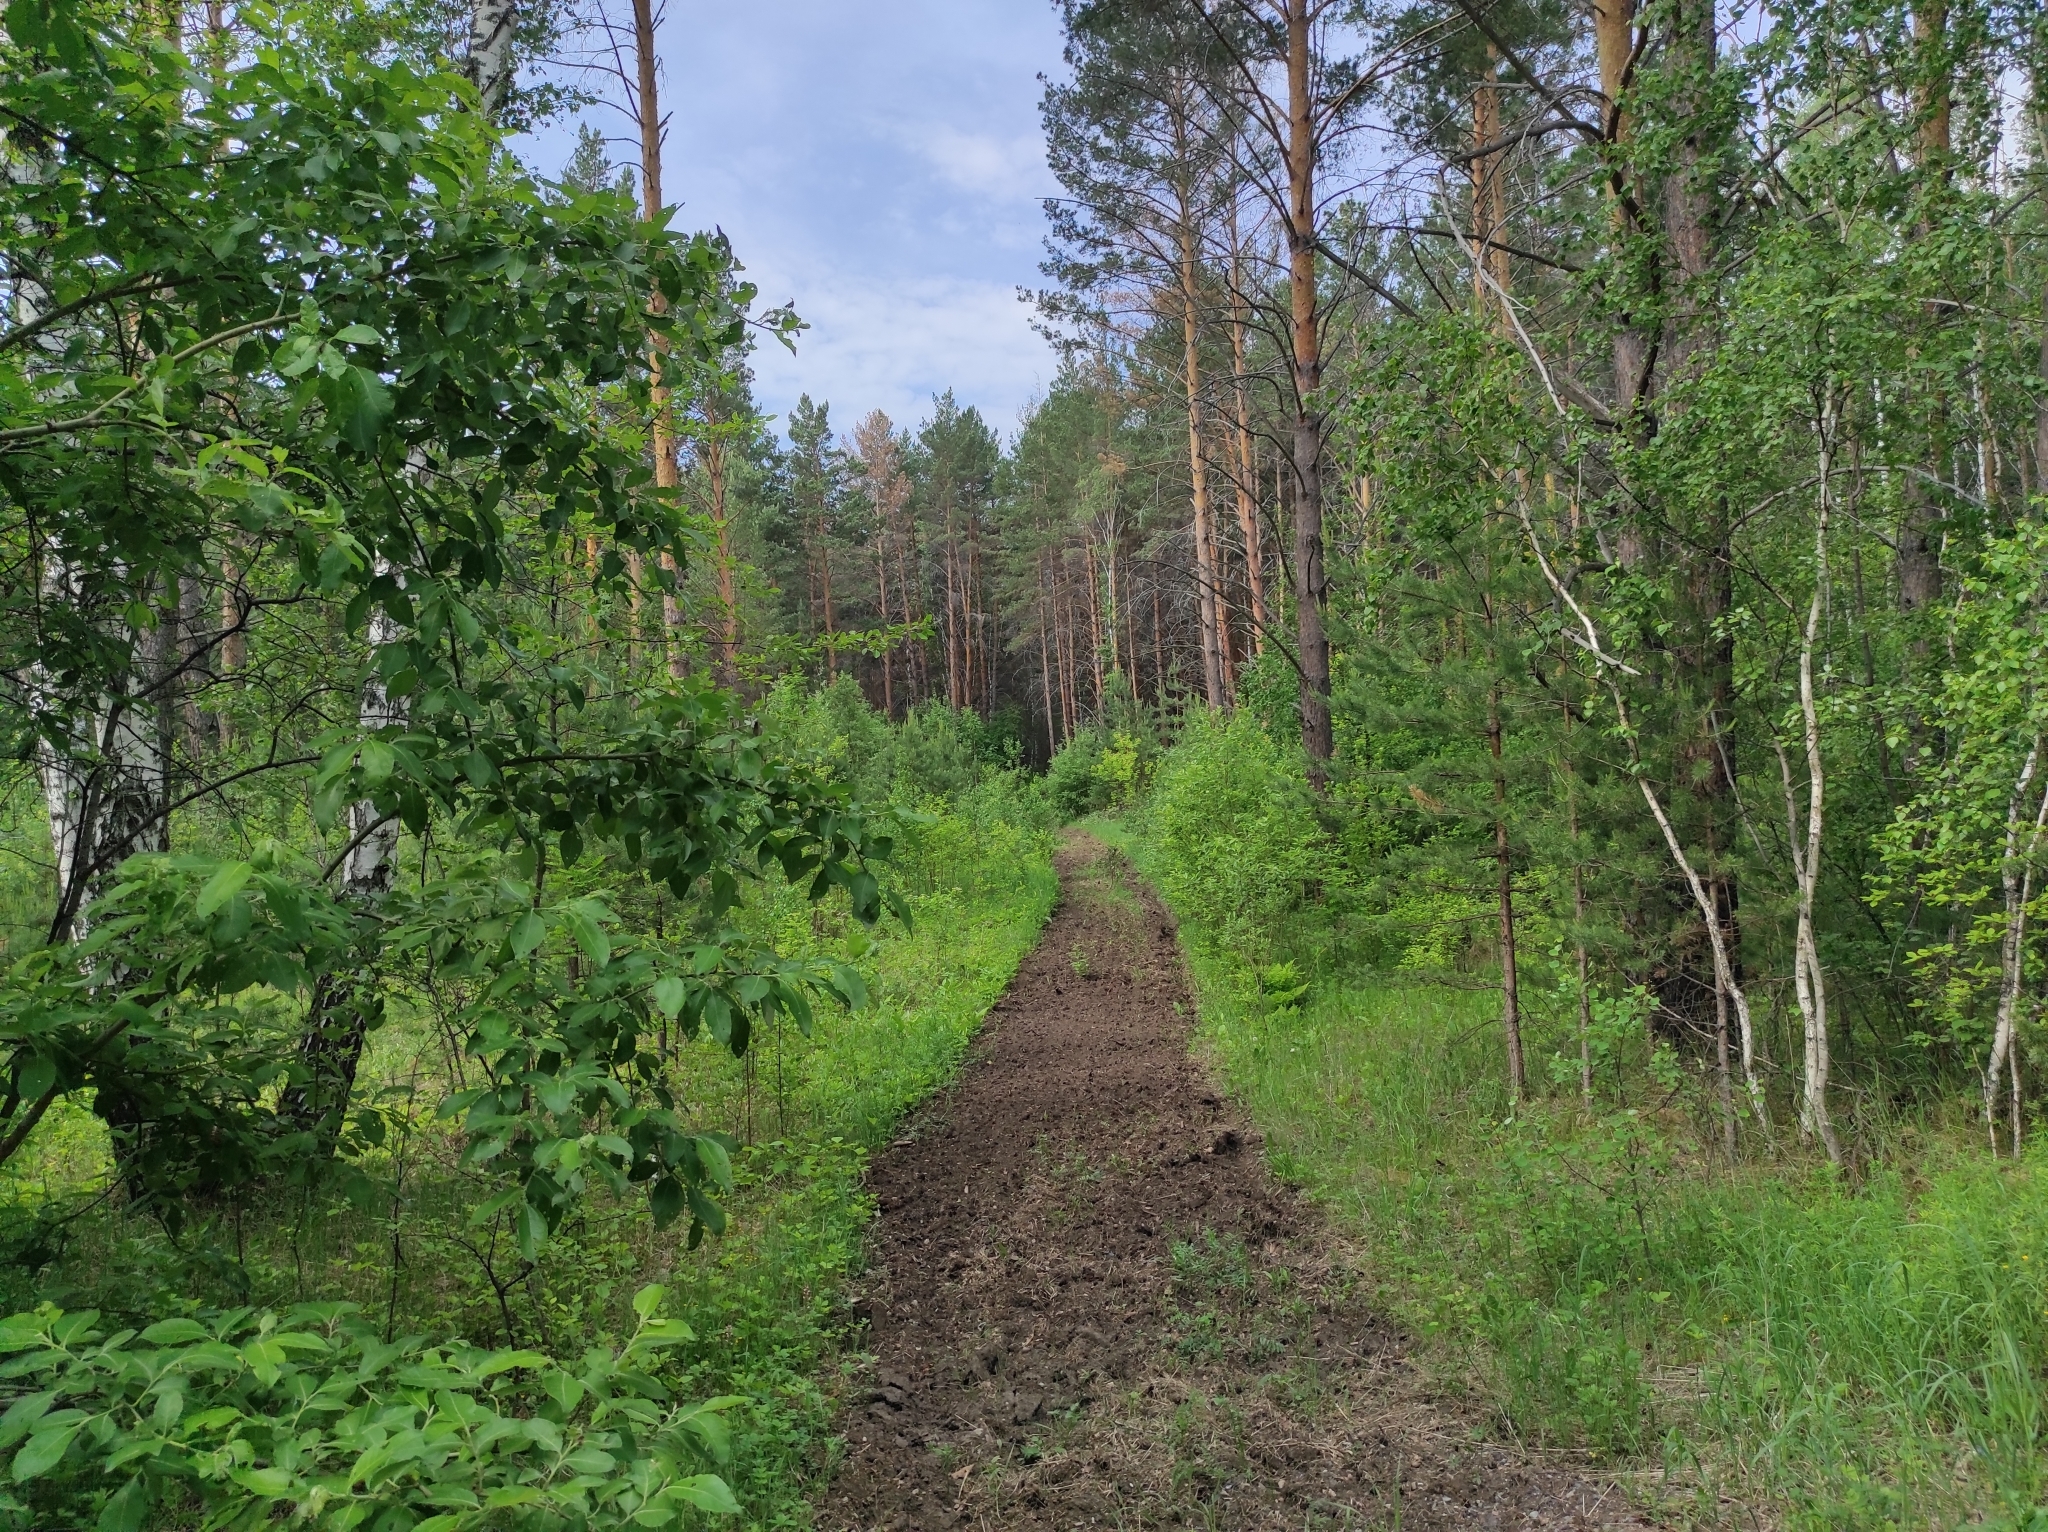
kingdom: Plantae
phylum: Tracheophyta
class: Pinopsida
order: Pinales
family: Pinaceae
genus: Pinus
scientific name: Pinus sylvestris
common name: Scots pine
